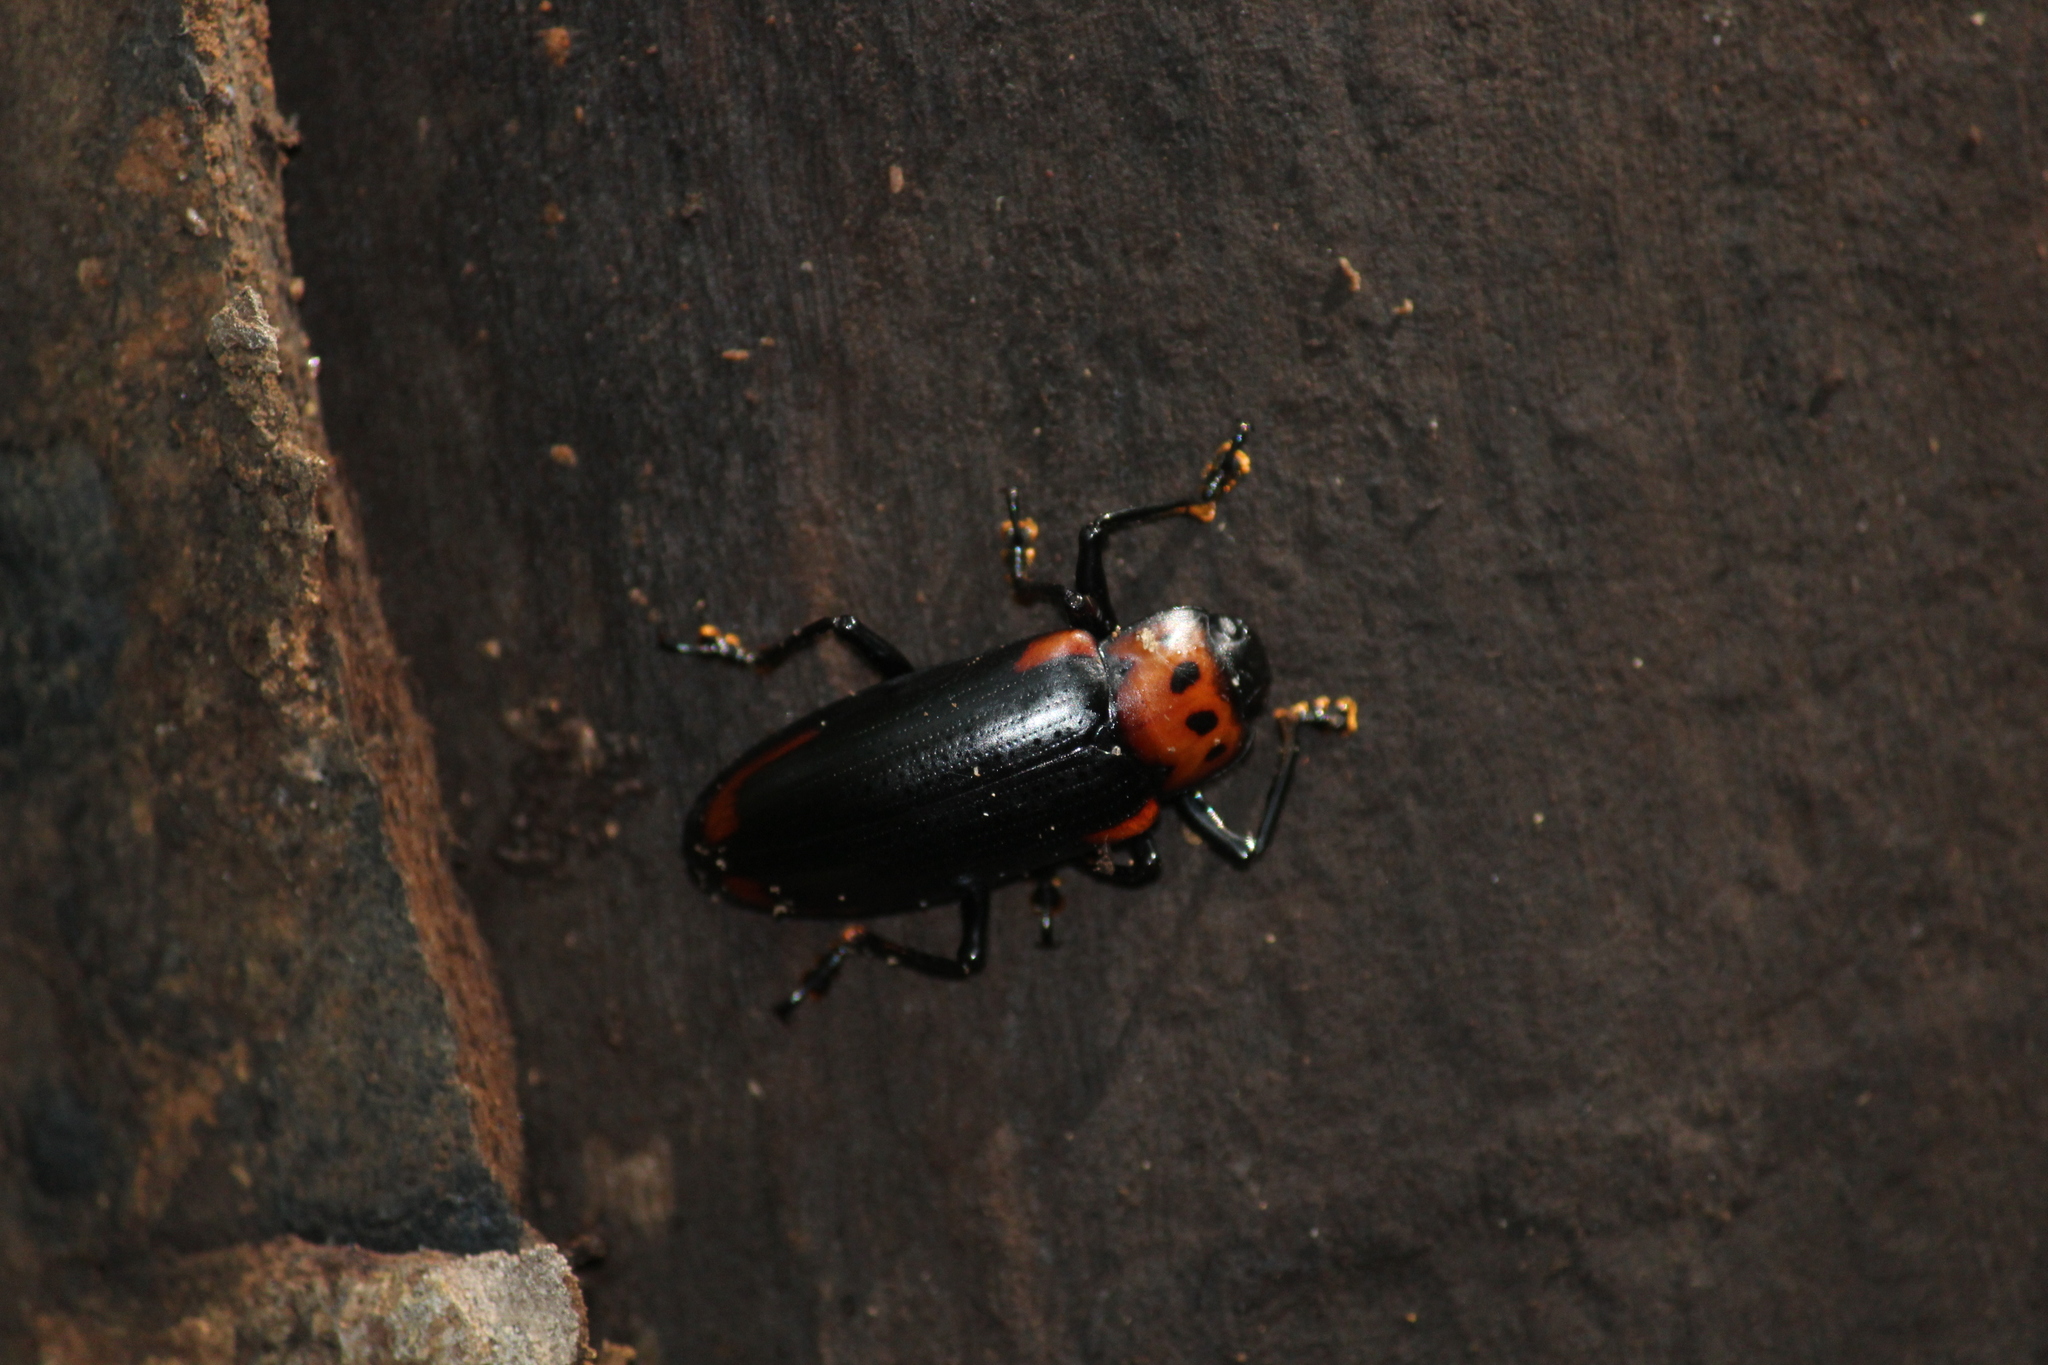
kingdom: Animalia
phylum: Arthropoda
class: Insecta
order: Coleoptera
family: Erotylidae
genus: Encaustes
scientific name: Encaustes
